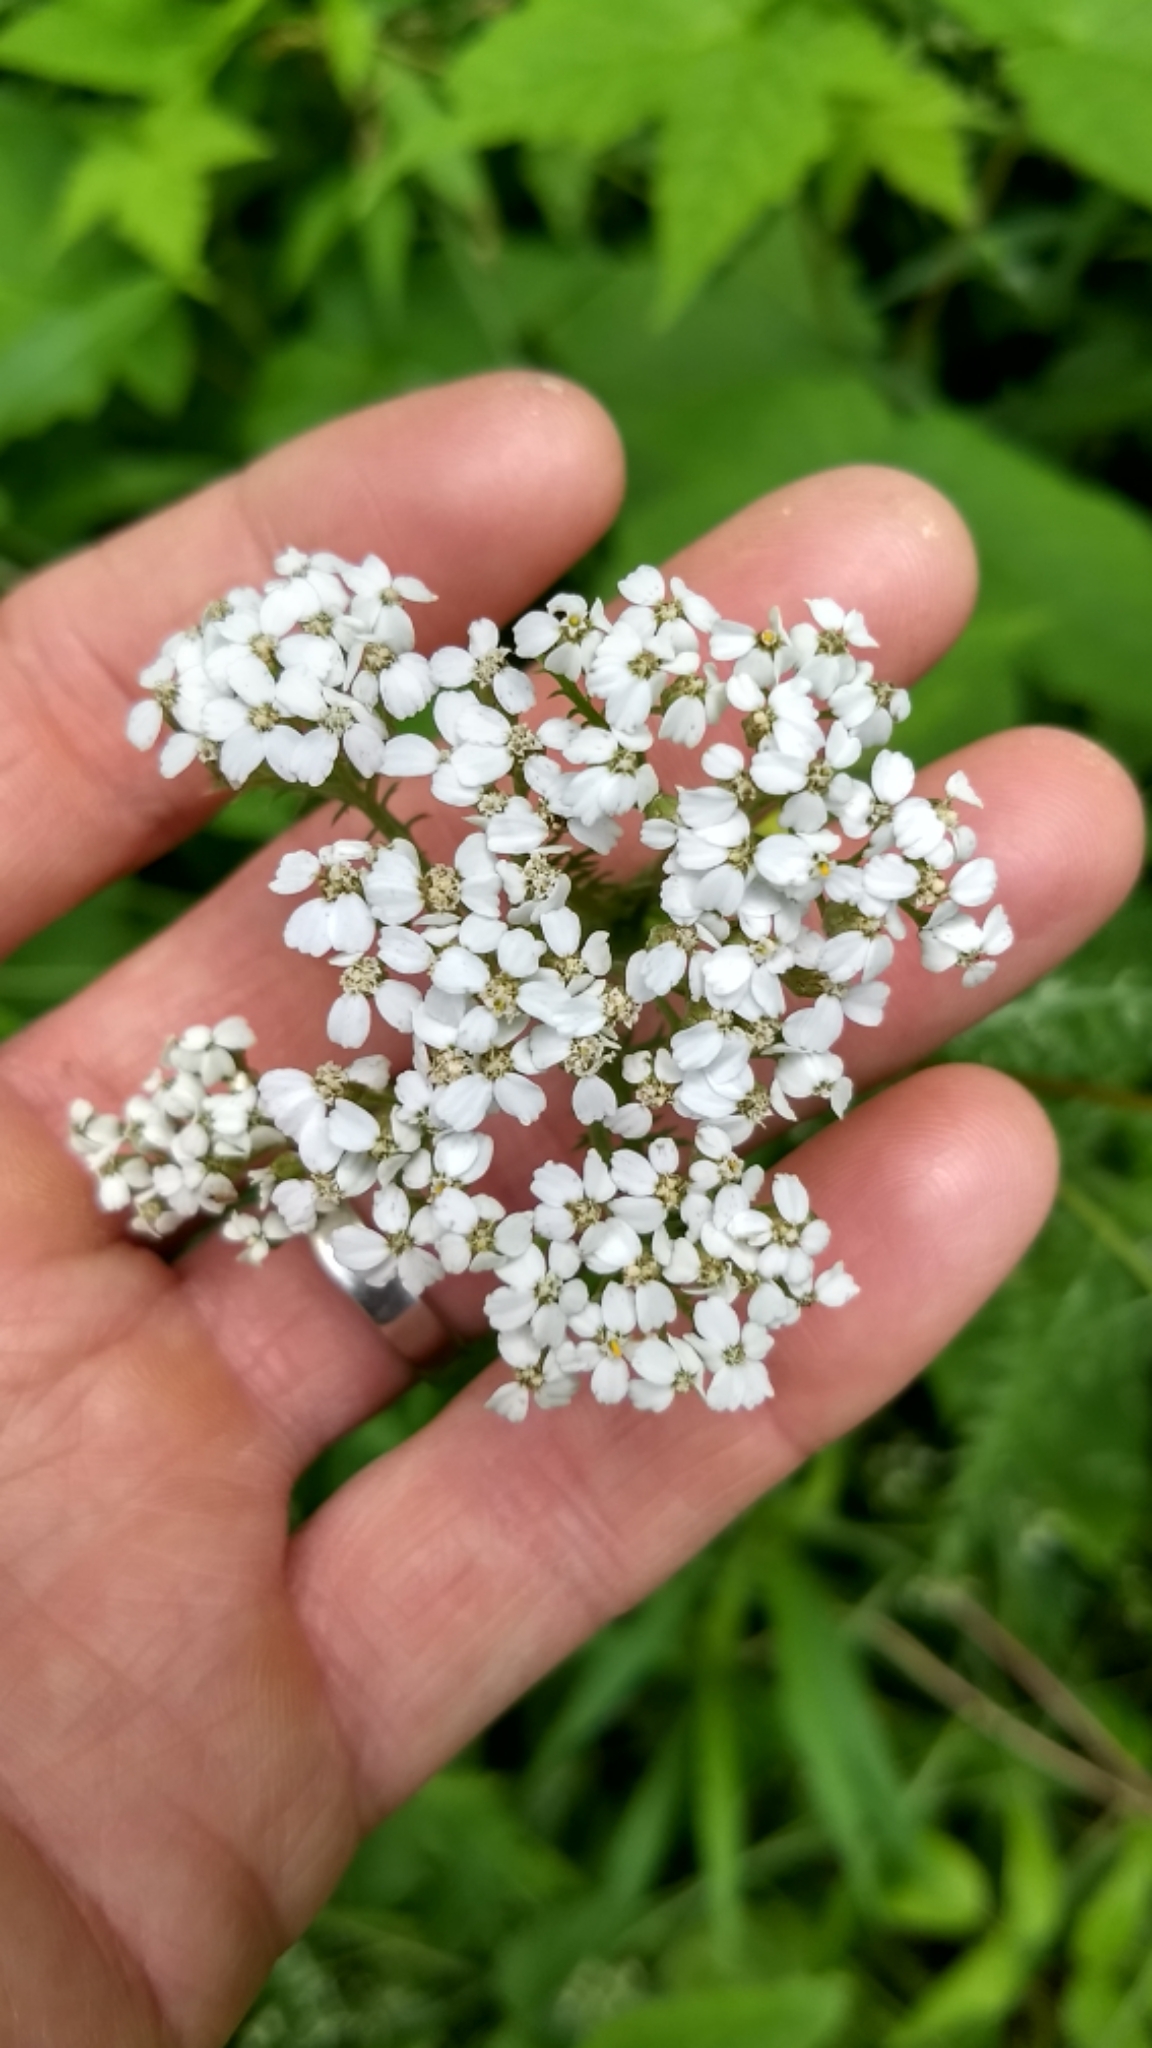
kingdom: Plantae
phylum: Tracheophyta
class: Magnoliopsida
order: Asterales
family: Asteraceae
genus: Achillea
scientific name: Achillea millefolium
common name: Yarrow
